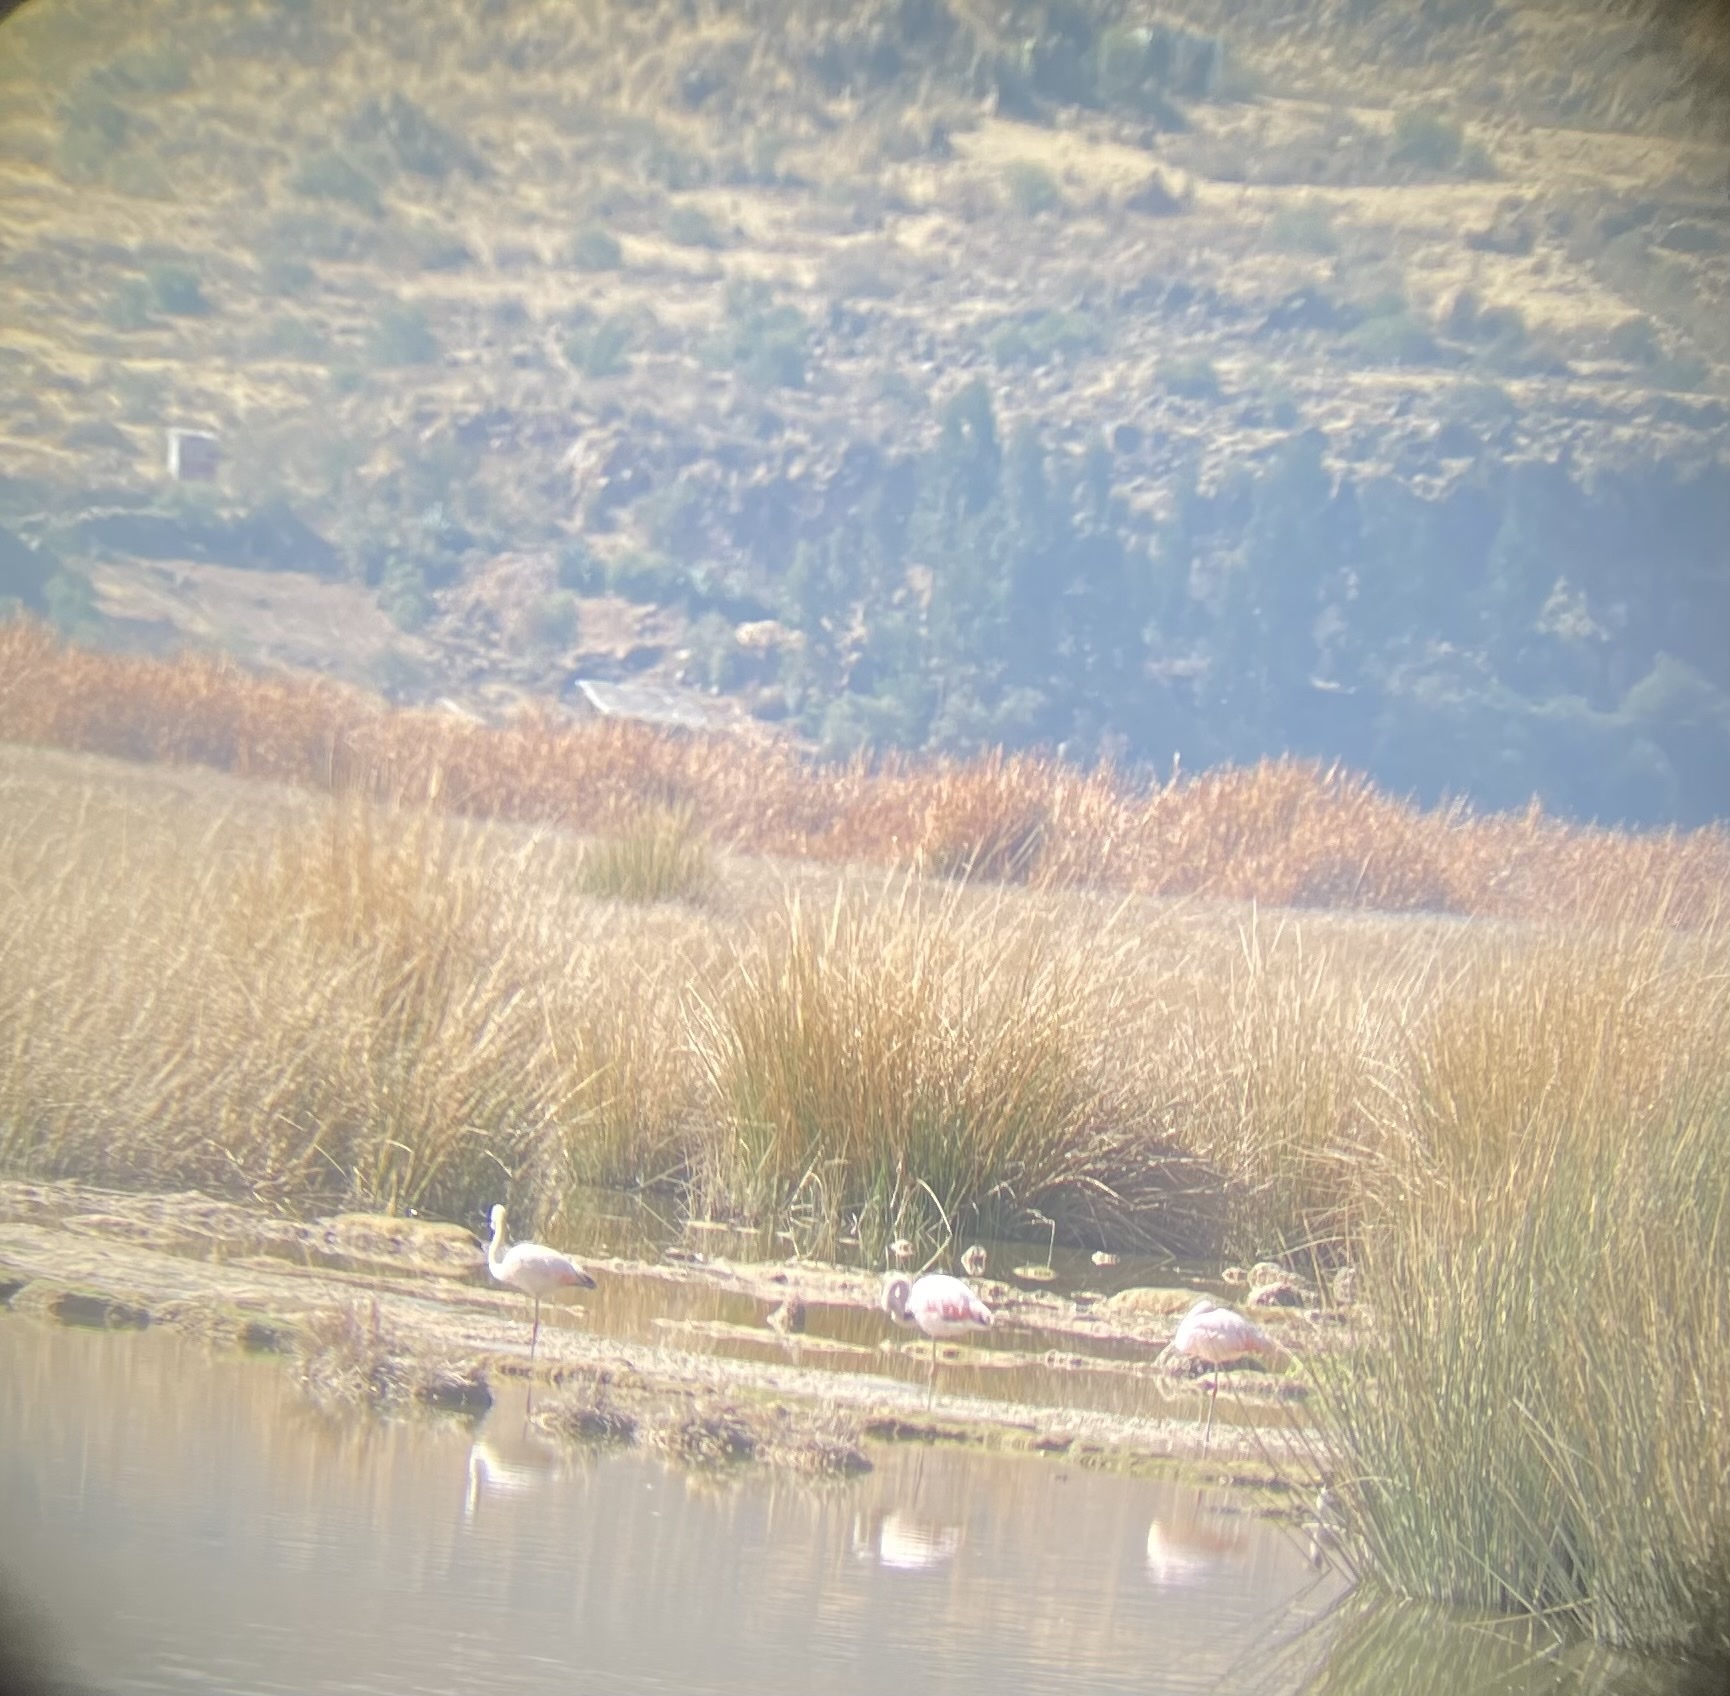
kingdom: Animalia
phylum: Chordata
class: Aves
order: Phoenicopteriformes
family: Phoenicopteridae
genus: Phoenicopterus
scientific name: Phoenicopterus chilensis
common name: Chilean flamingo
